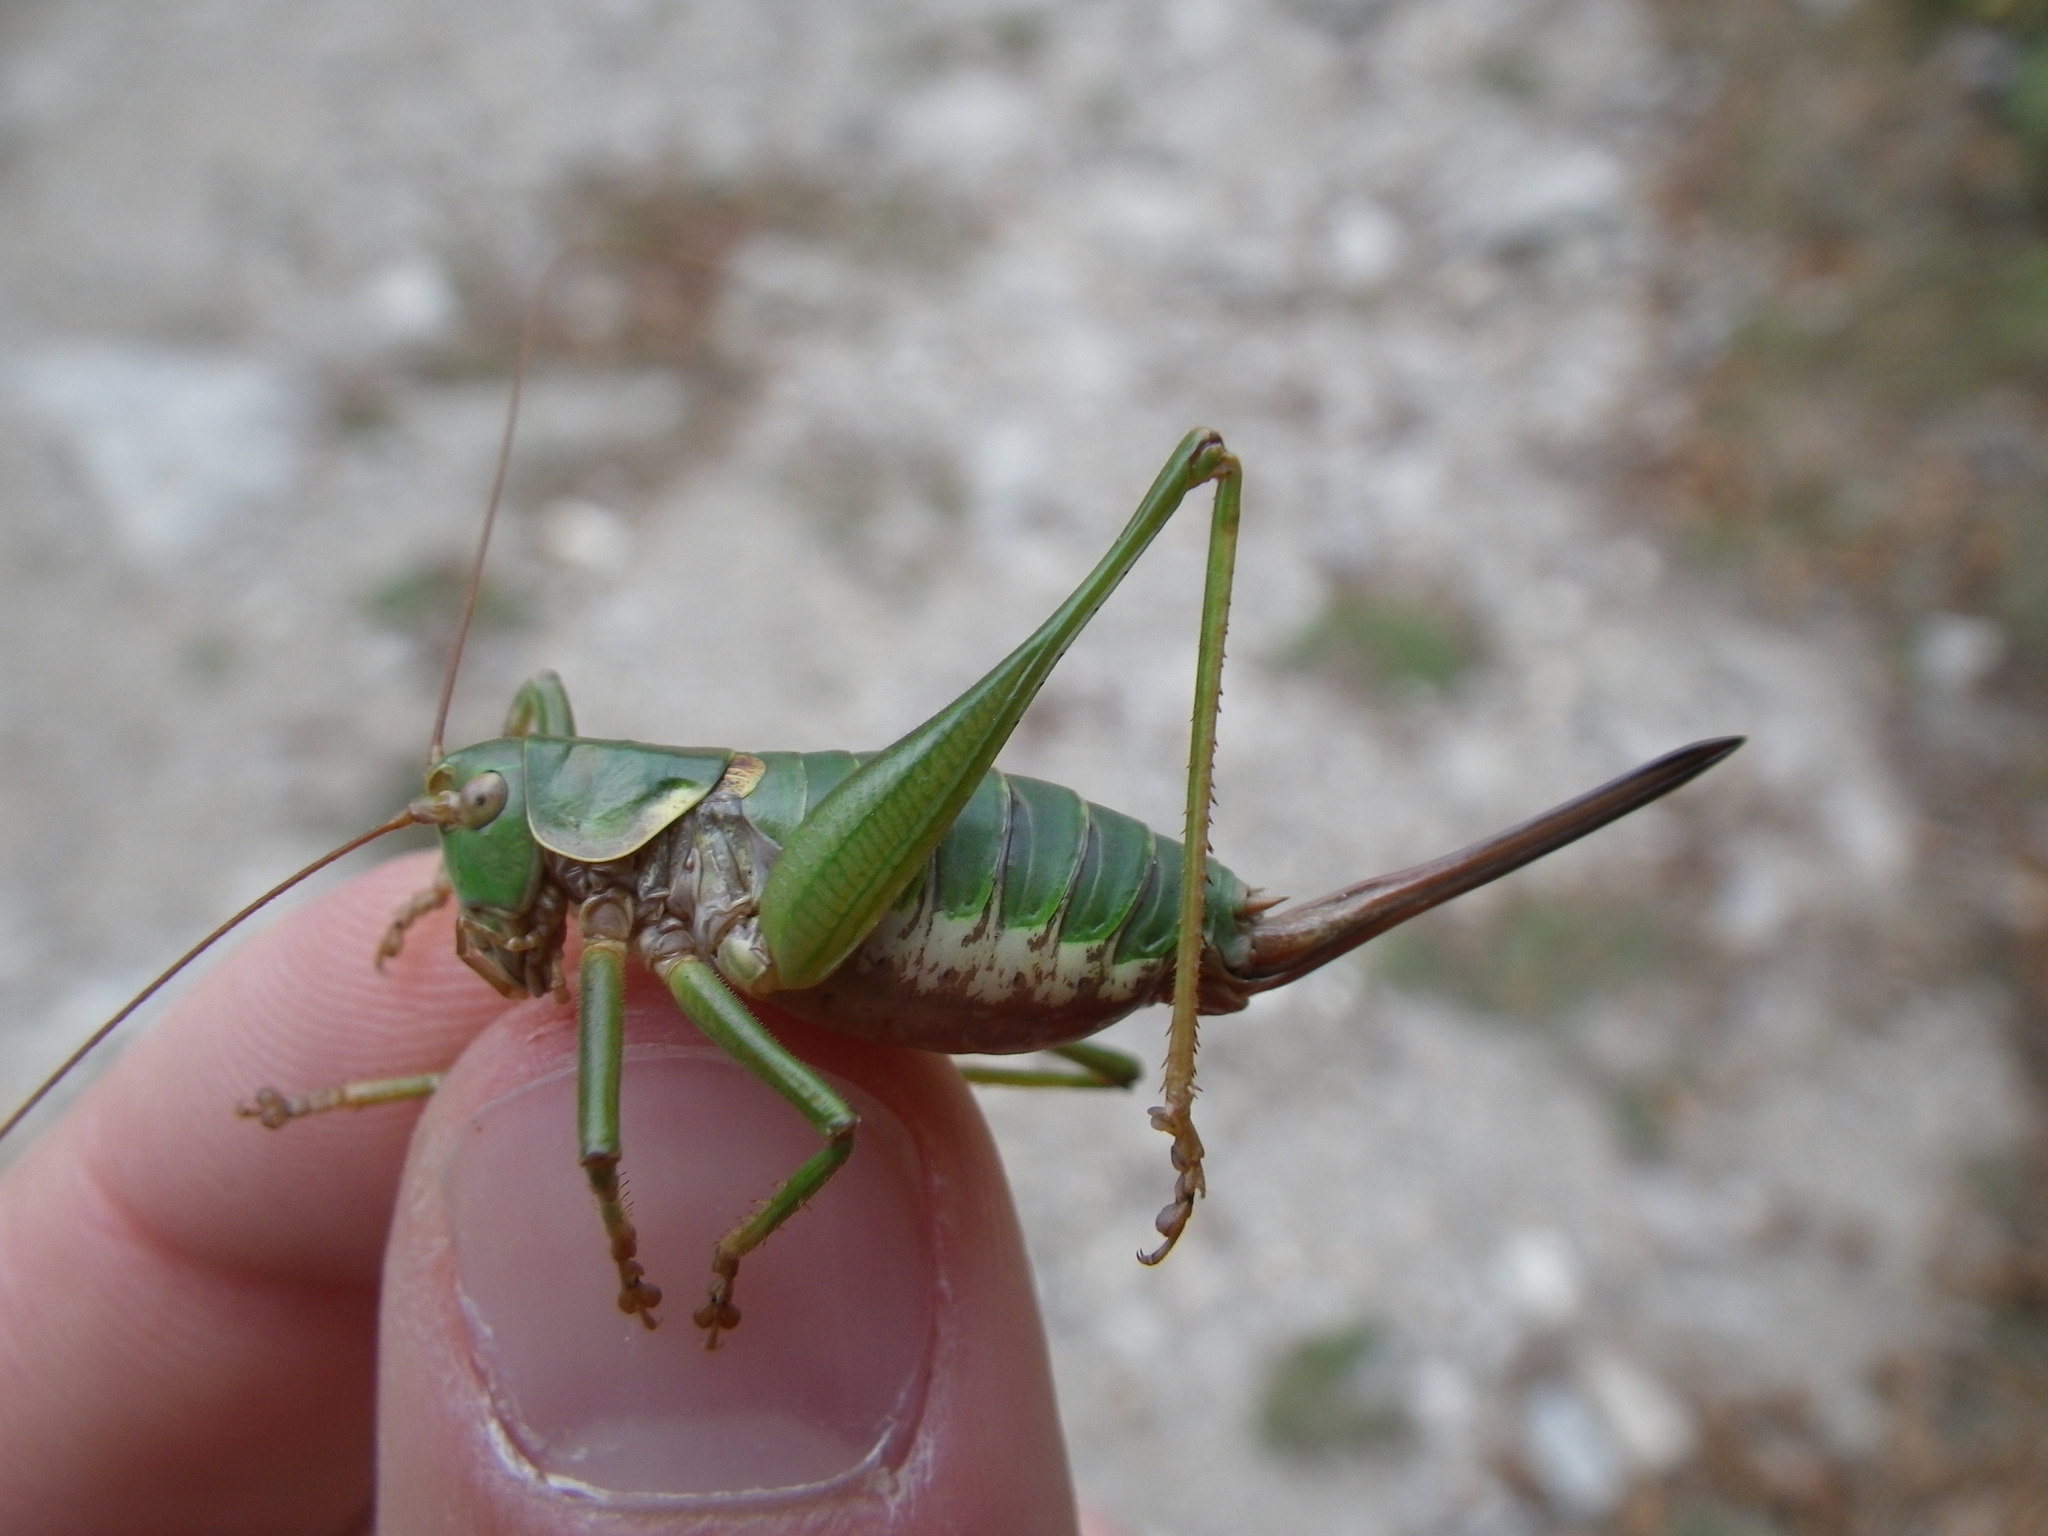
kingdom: Animalia
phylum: Arthropoda
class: Insecta
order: Orthoptera
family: Tettigoniidae
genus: Antaxius
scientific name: Antaxius sorrezensis
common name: French mountain bush-cricket
